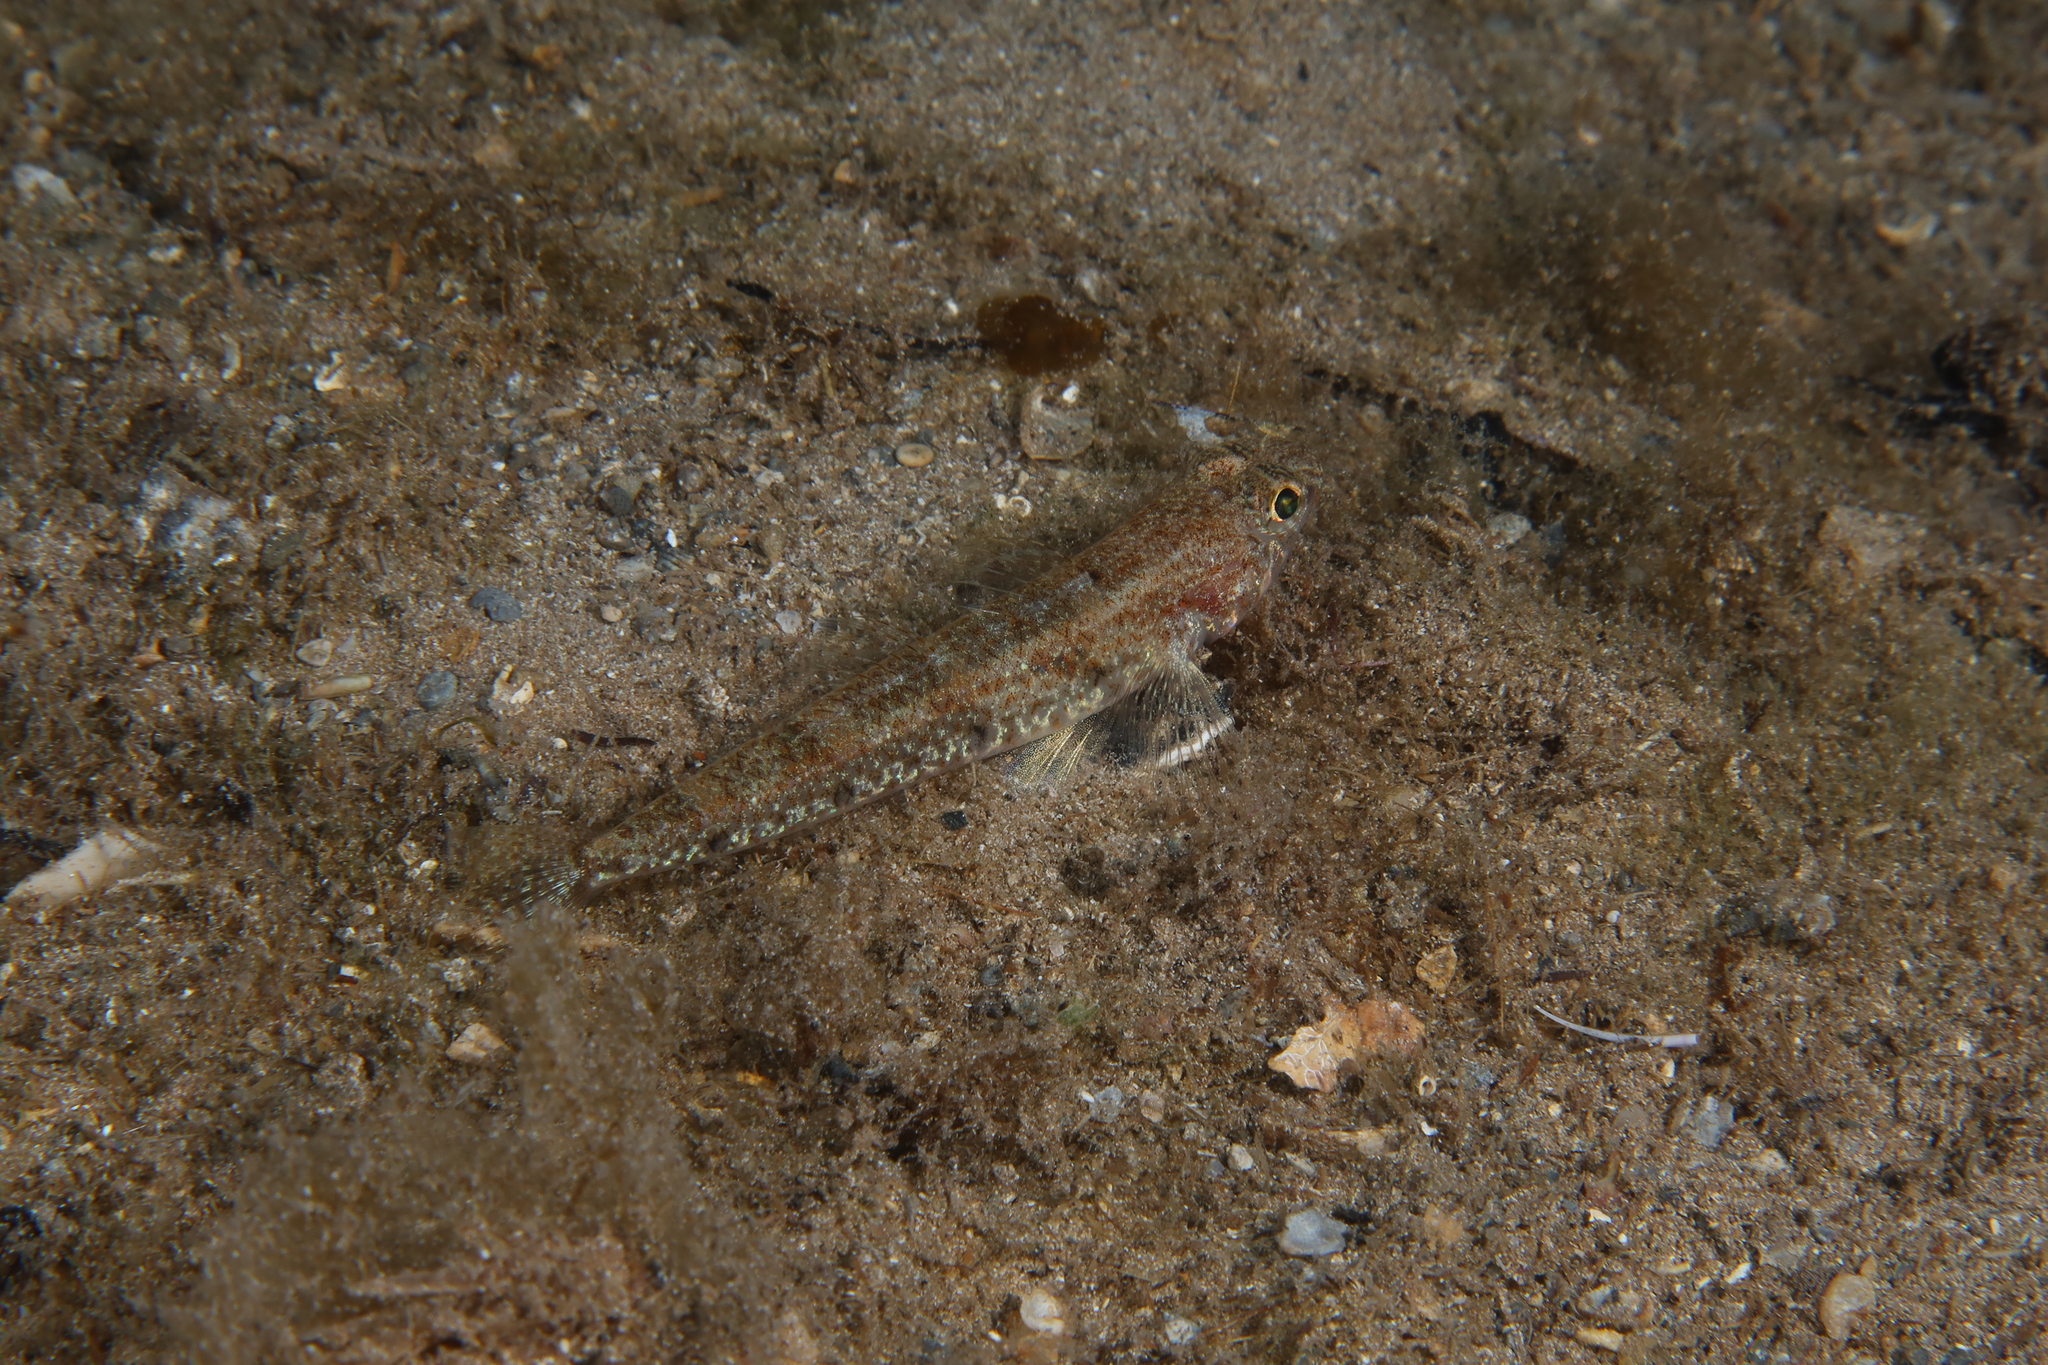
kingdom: Animalia
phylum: Chordata
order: Perciformes
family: Gobiidae
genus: Deltentosteus
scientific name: Deltentosteus quadrimaculatus
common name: Four-spotted goby
